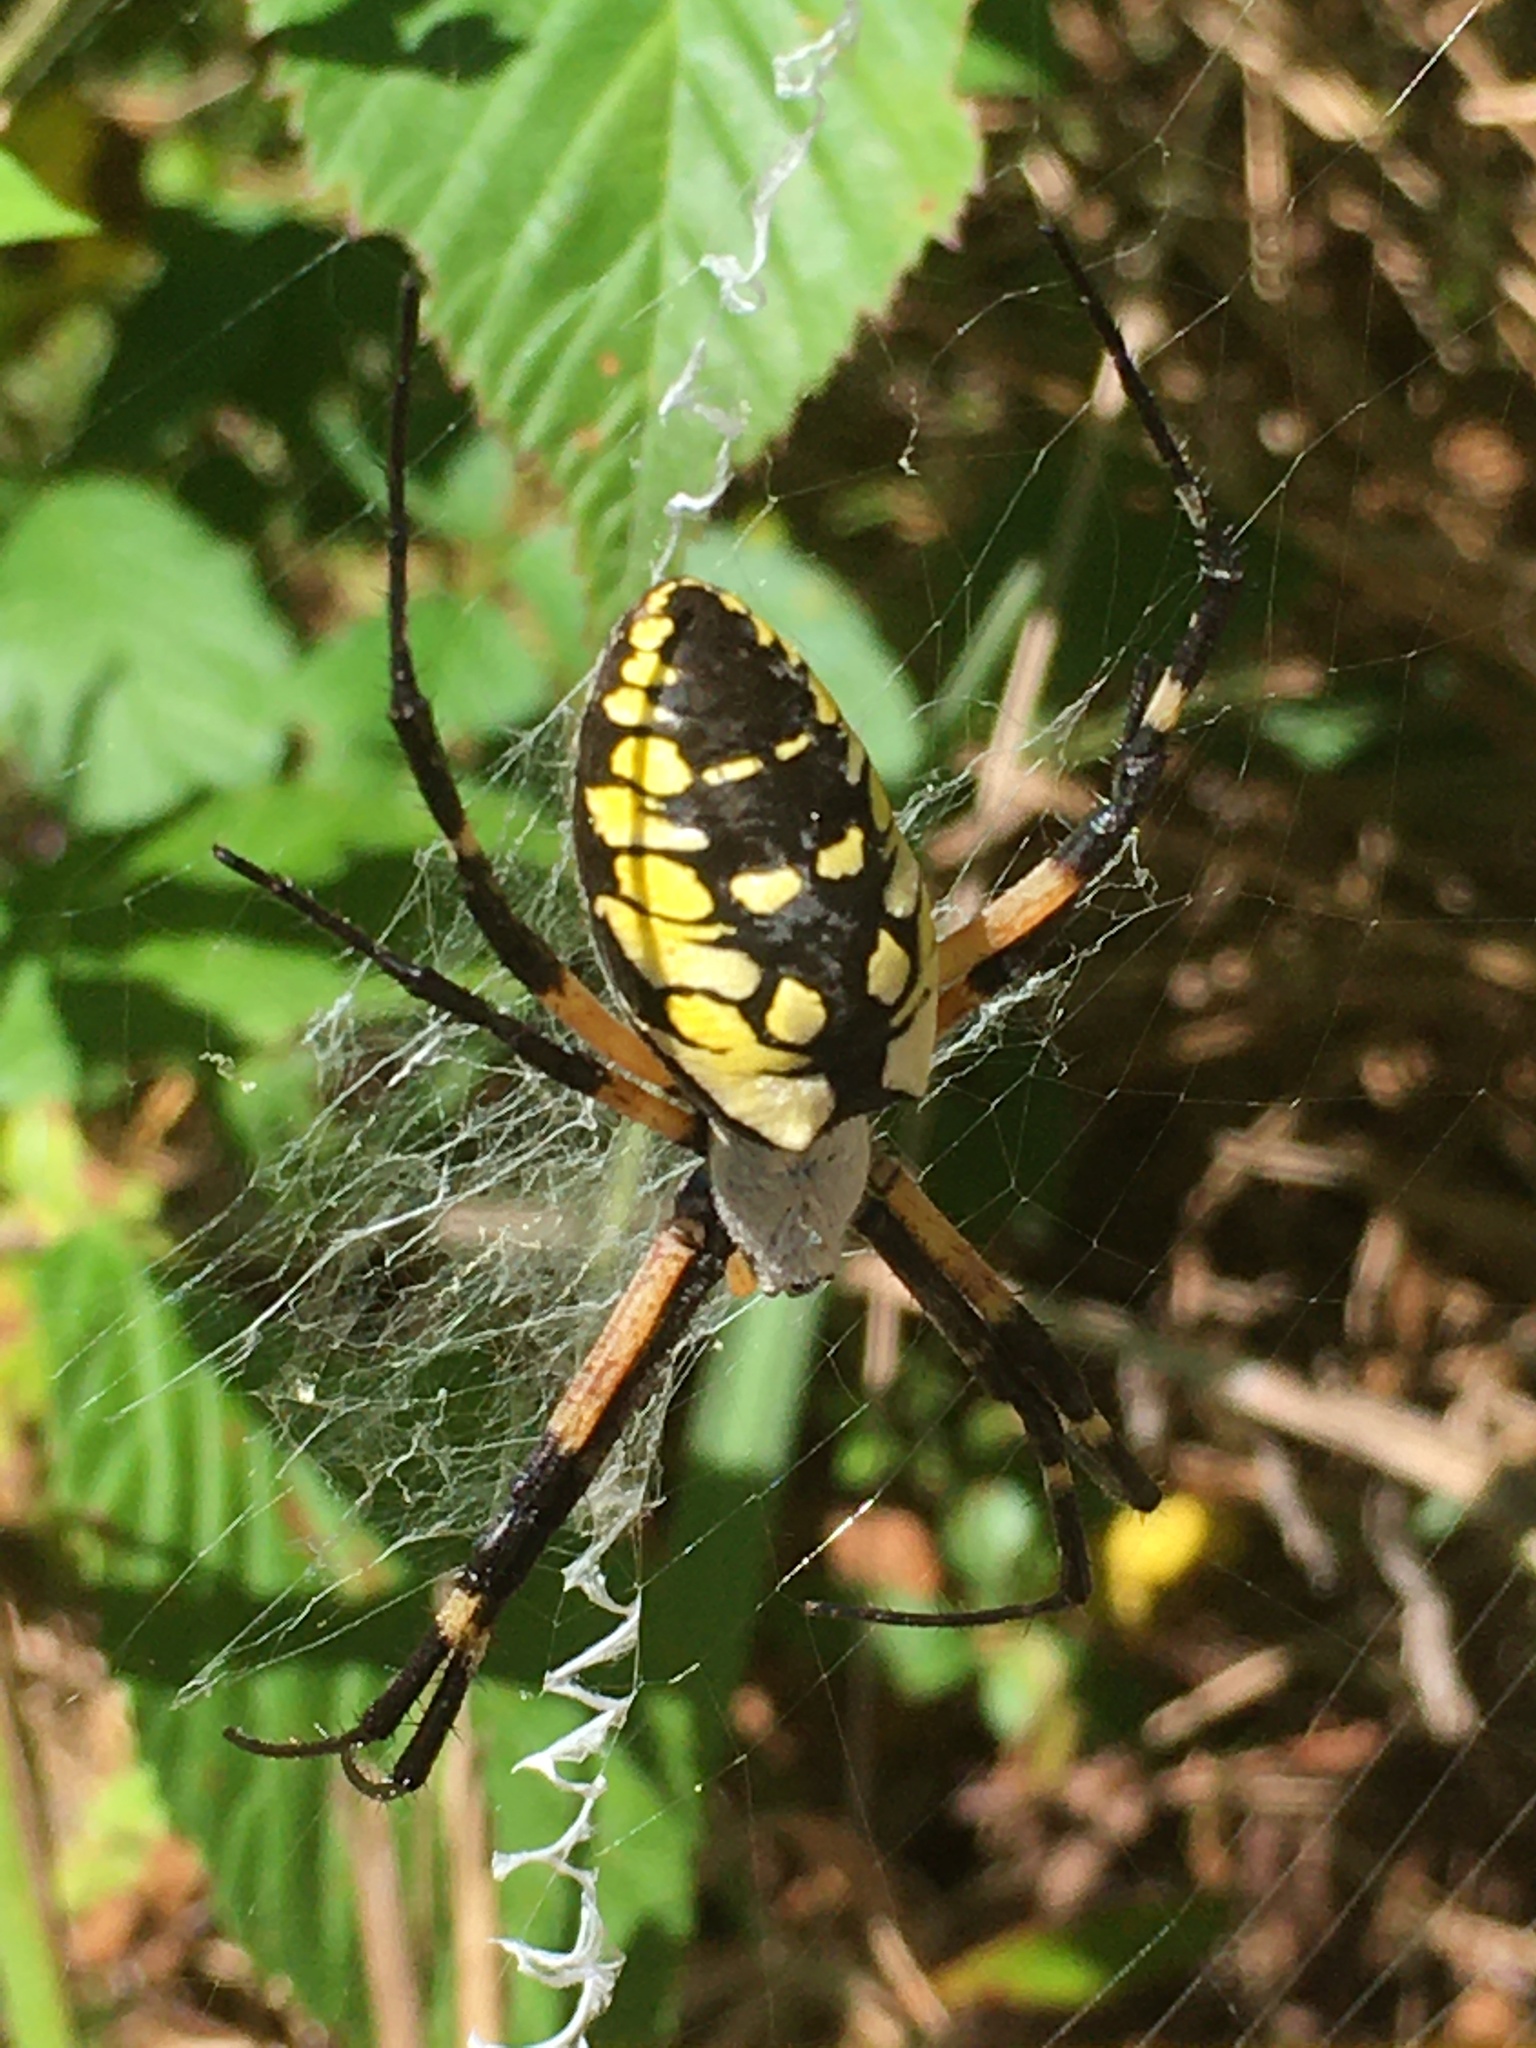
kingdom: Animalia
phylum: Arthropoda
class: Arachnida
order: Araneae
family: Araneidae
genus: Argiope
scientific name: Argiope aurantia
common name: Orb weavers
